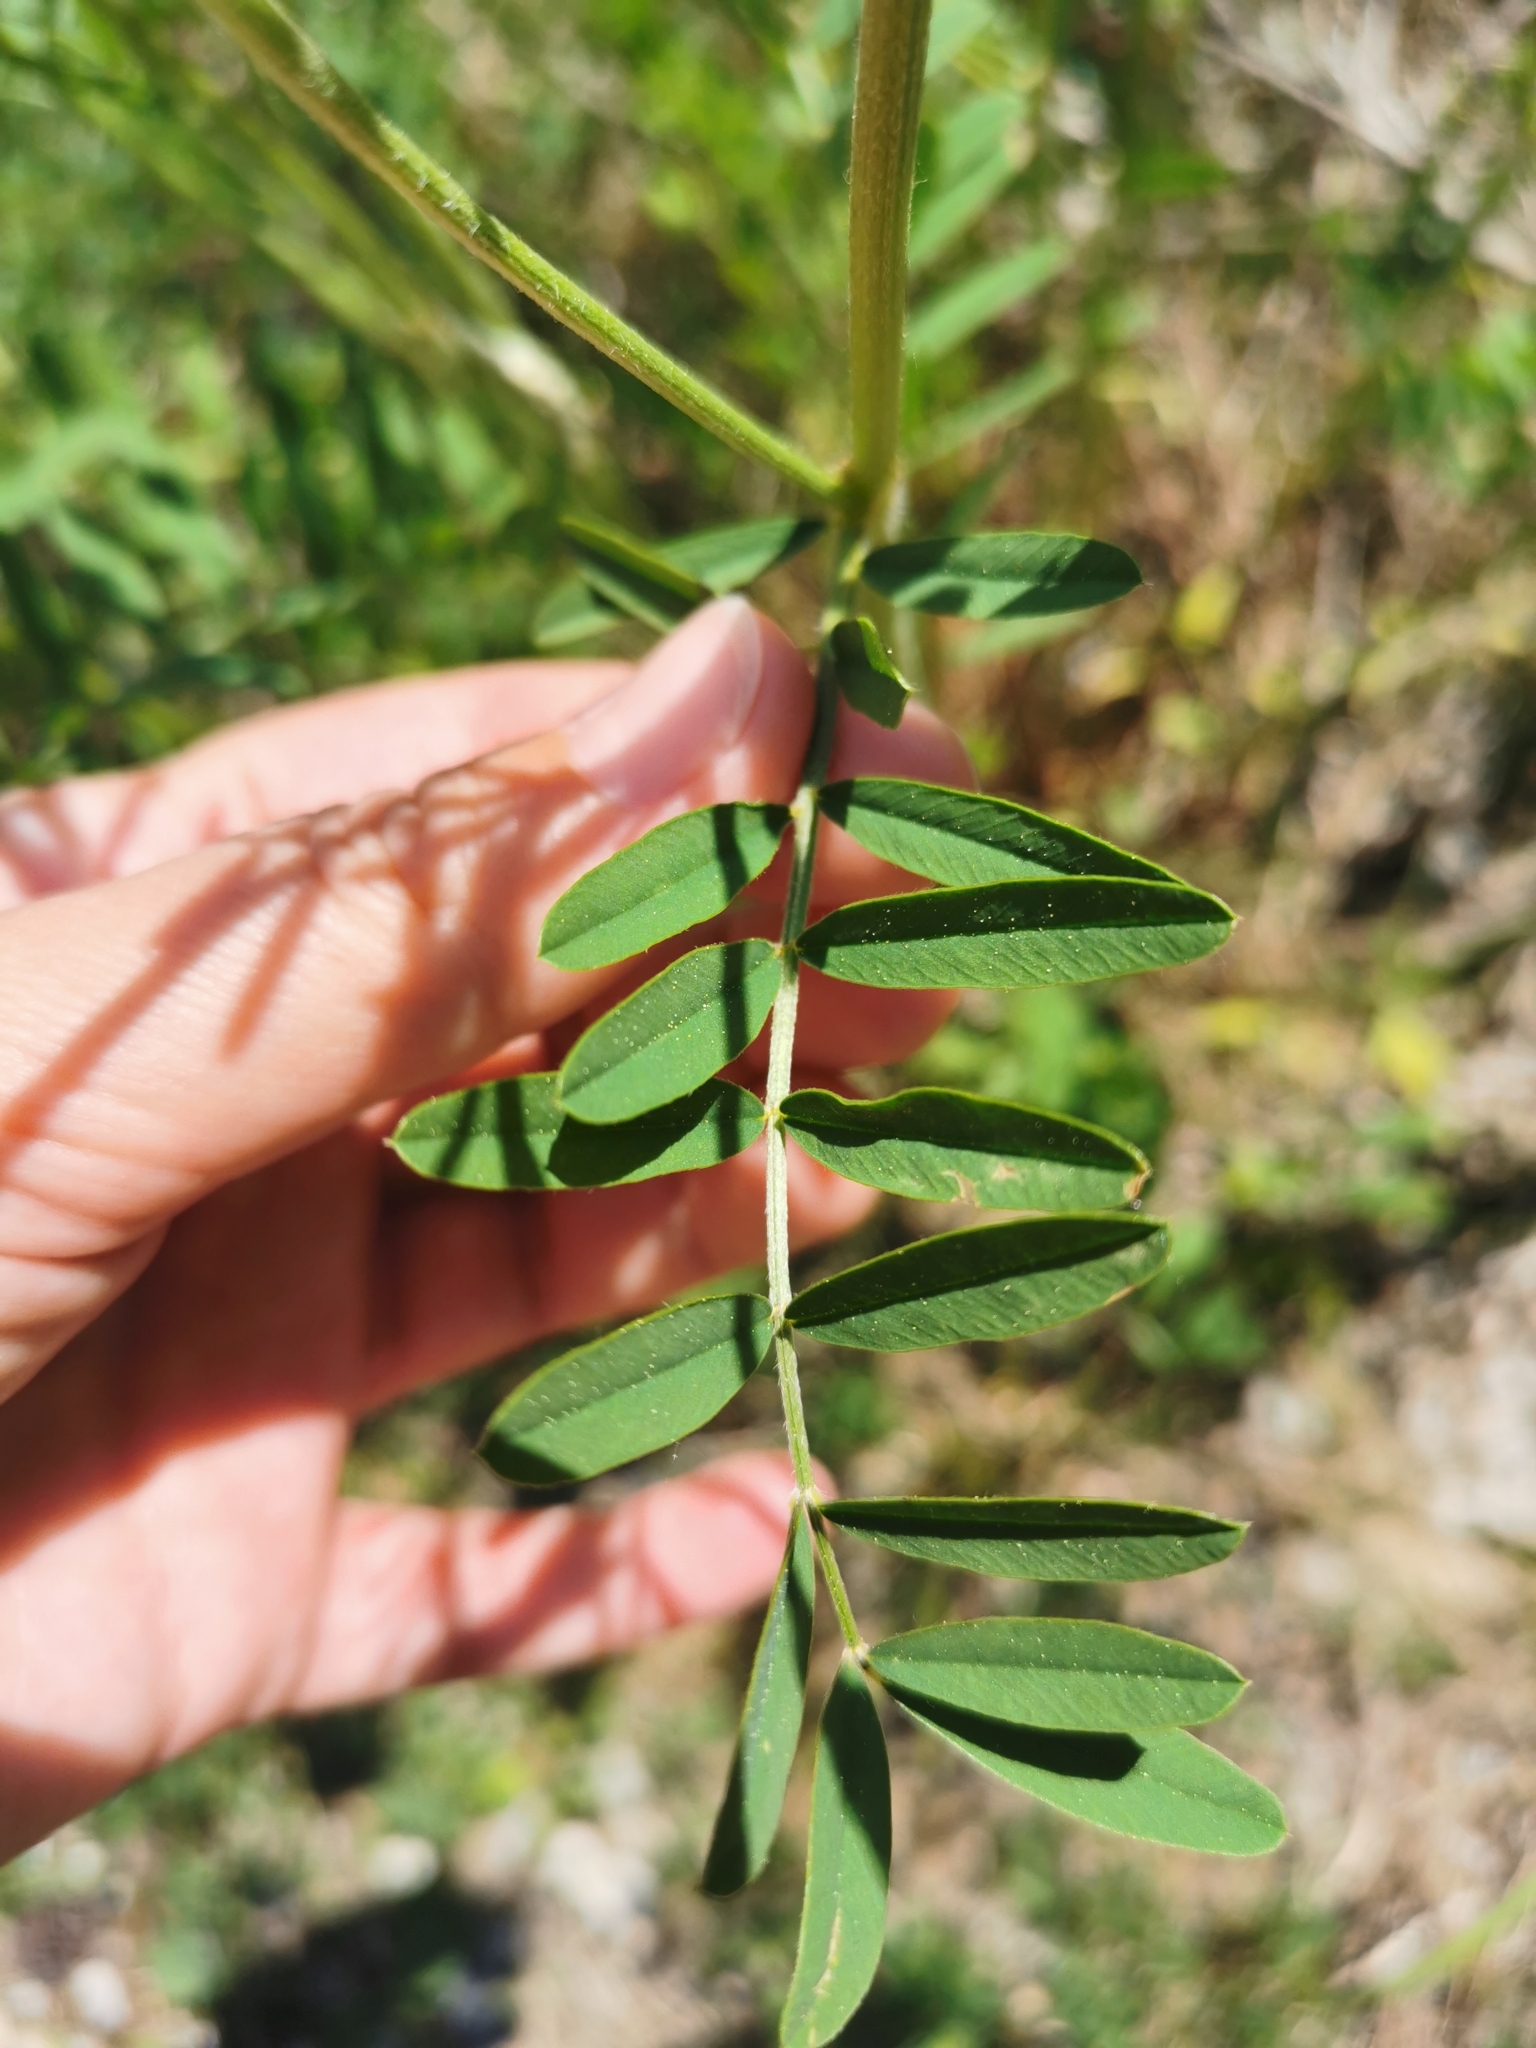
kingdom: Plantae
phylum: Tracheophyta
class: Magnoliopsida
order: Fabales
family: Fabaceae
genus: Onobrychis
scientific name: Onobrychis viciifolia
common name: Sainfoin
